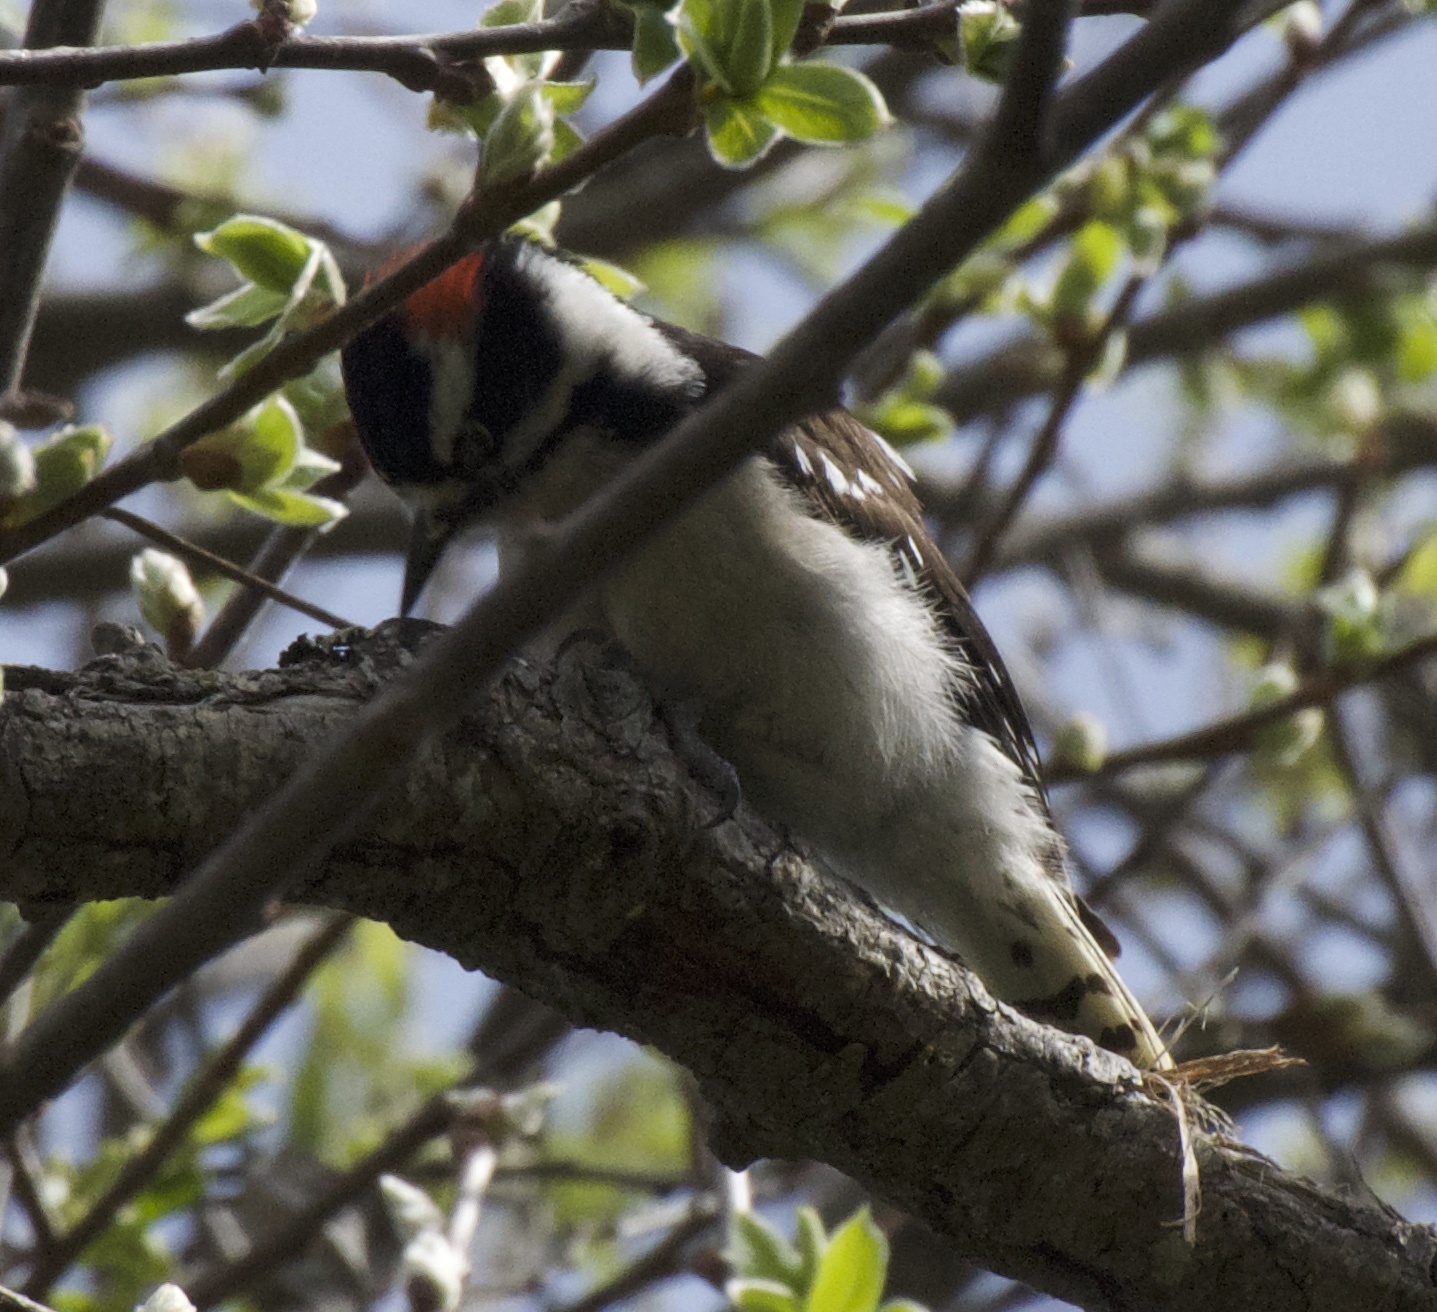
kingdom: Animalia
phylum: Chordata
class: Aves
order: Piciformes
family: Picidae
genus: Dryobates
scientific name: Dryobates pubescens
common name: Downy woodpecker
